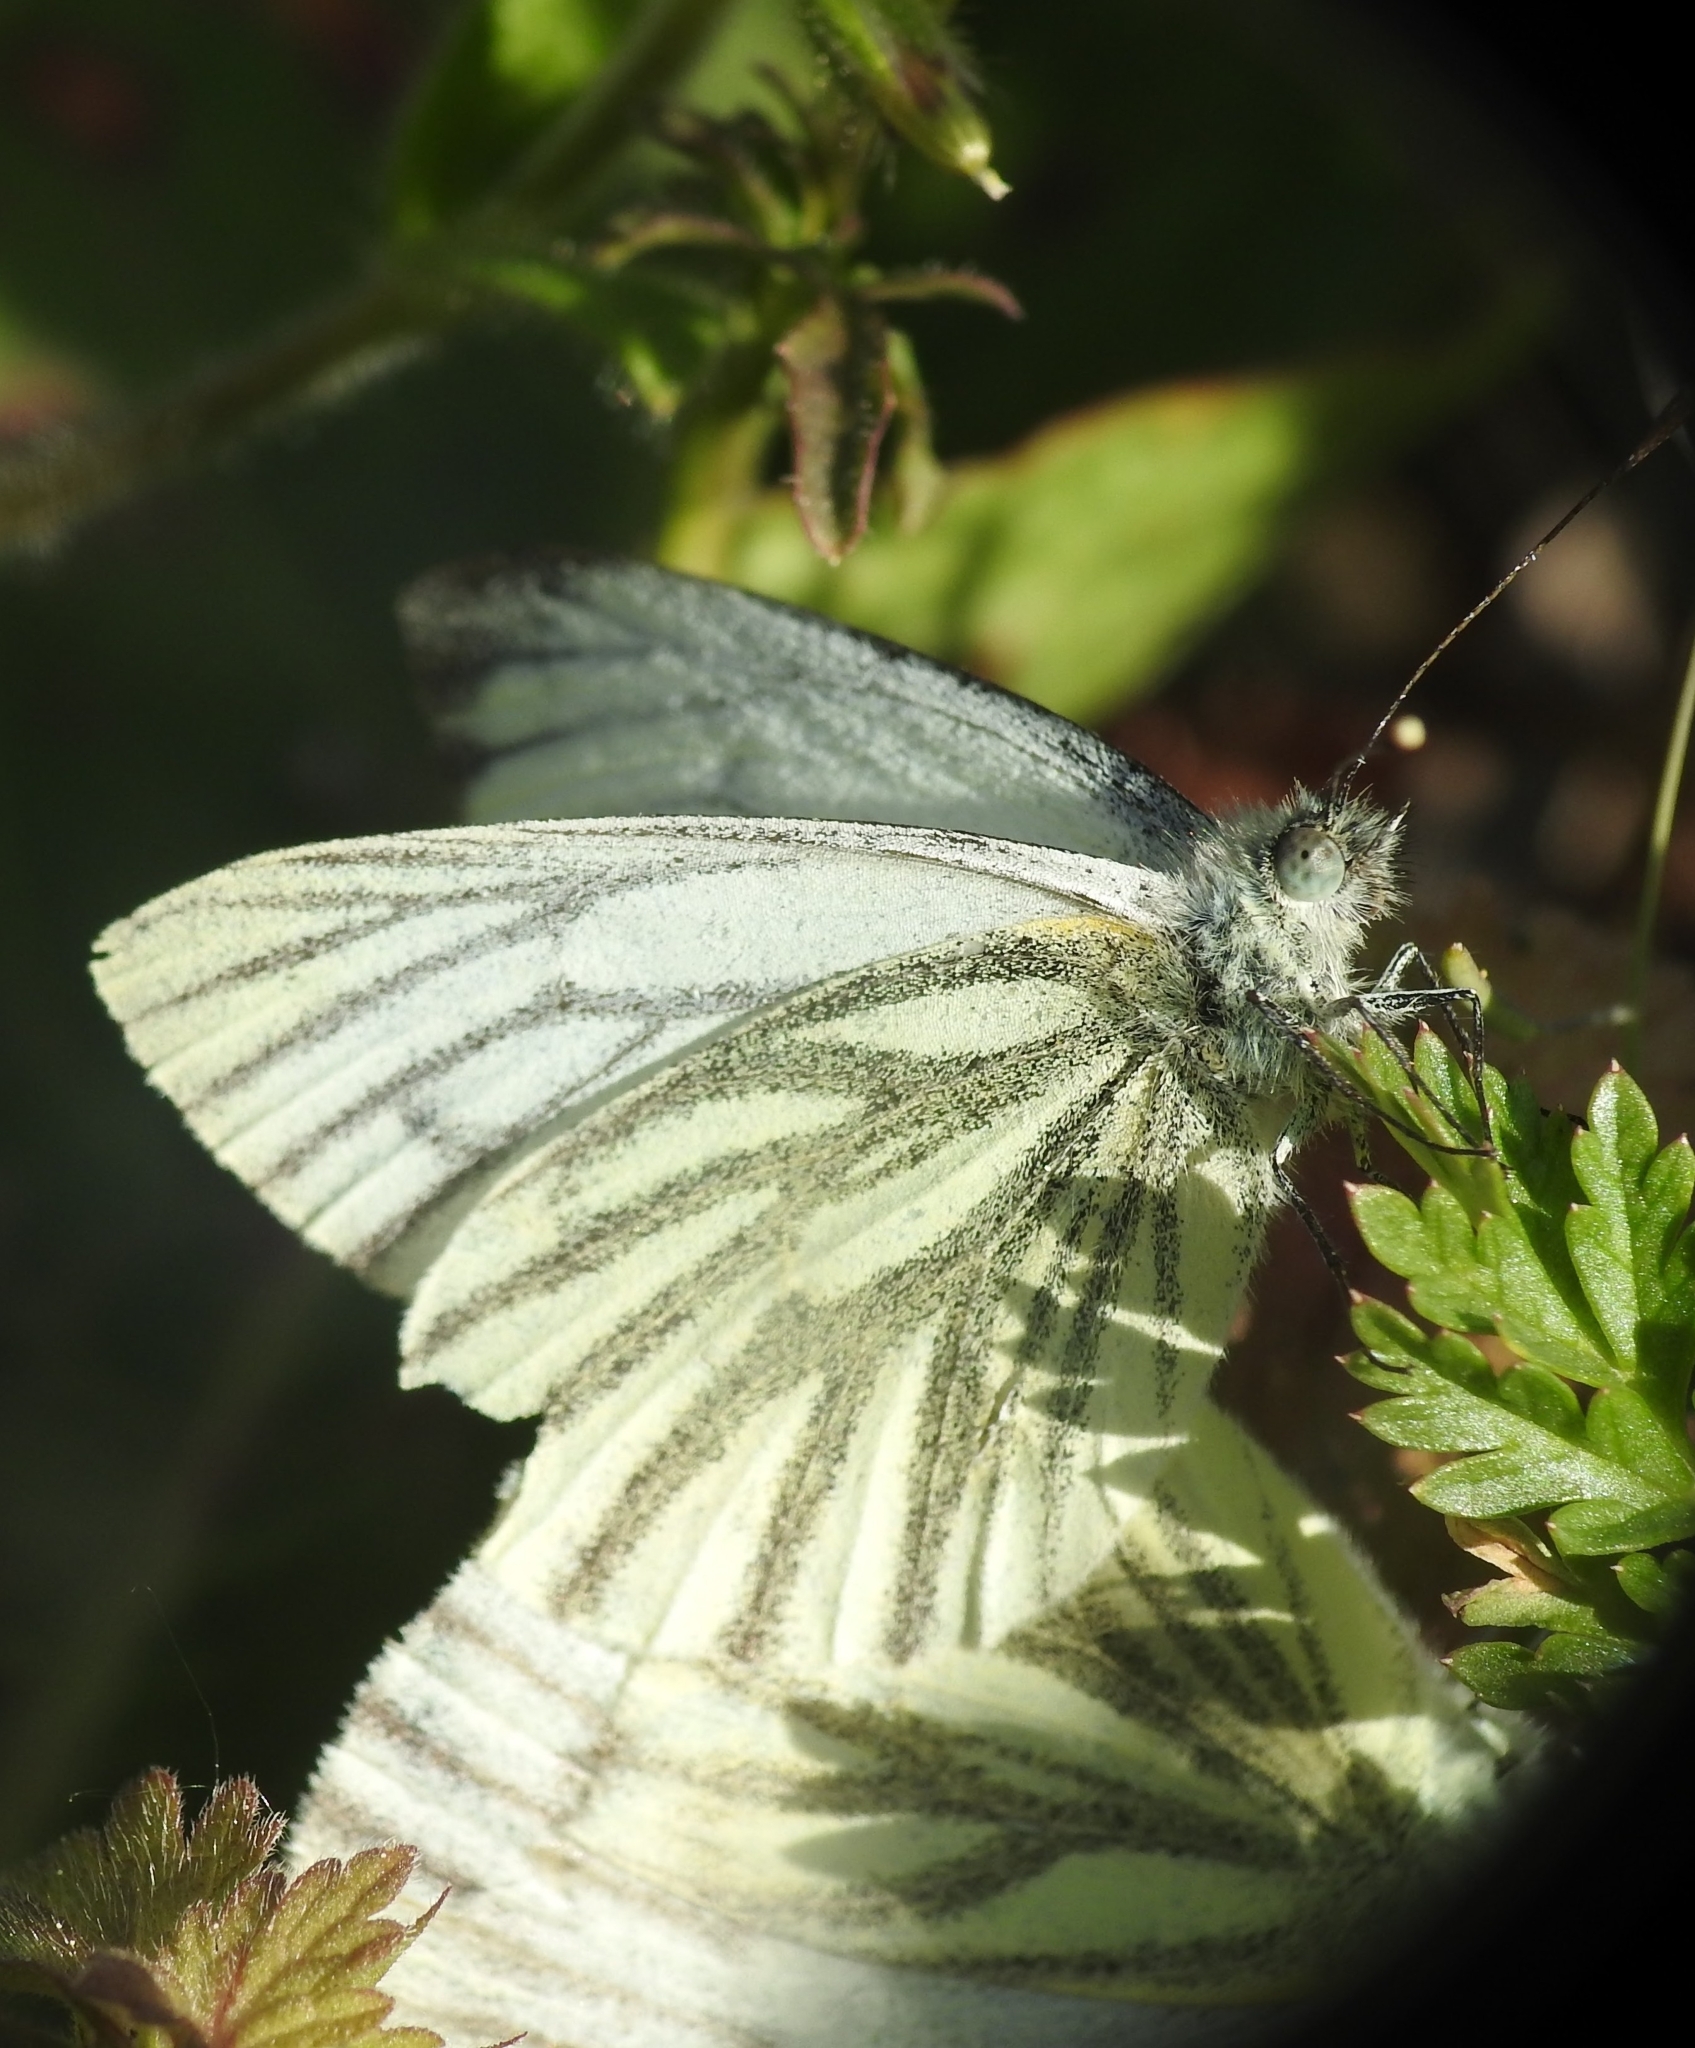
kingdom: Animalia
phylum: Arthropoda
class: Insecta
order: Lepidoptera
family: Pieridae
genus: Pieris
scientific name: Pieris napi
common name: Green-veined white
